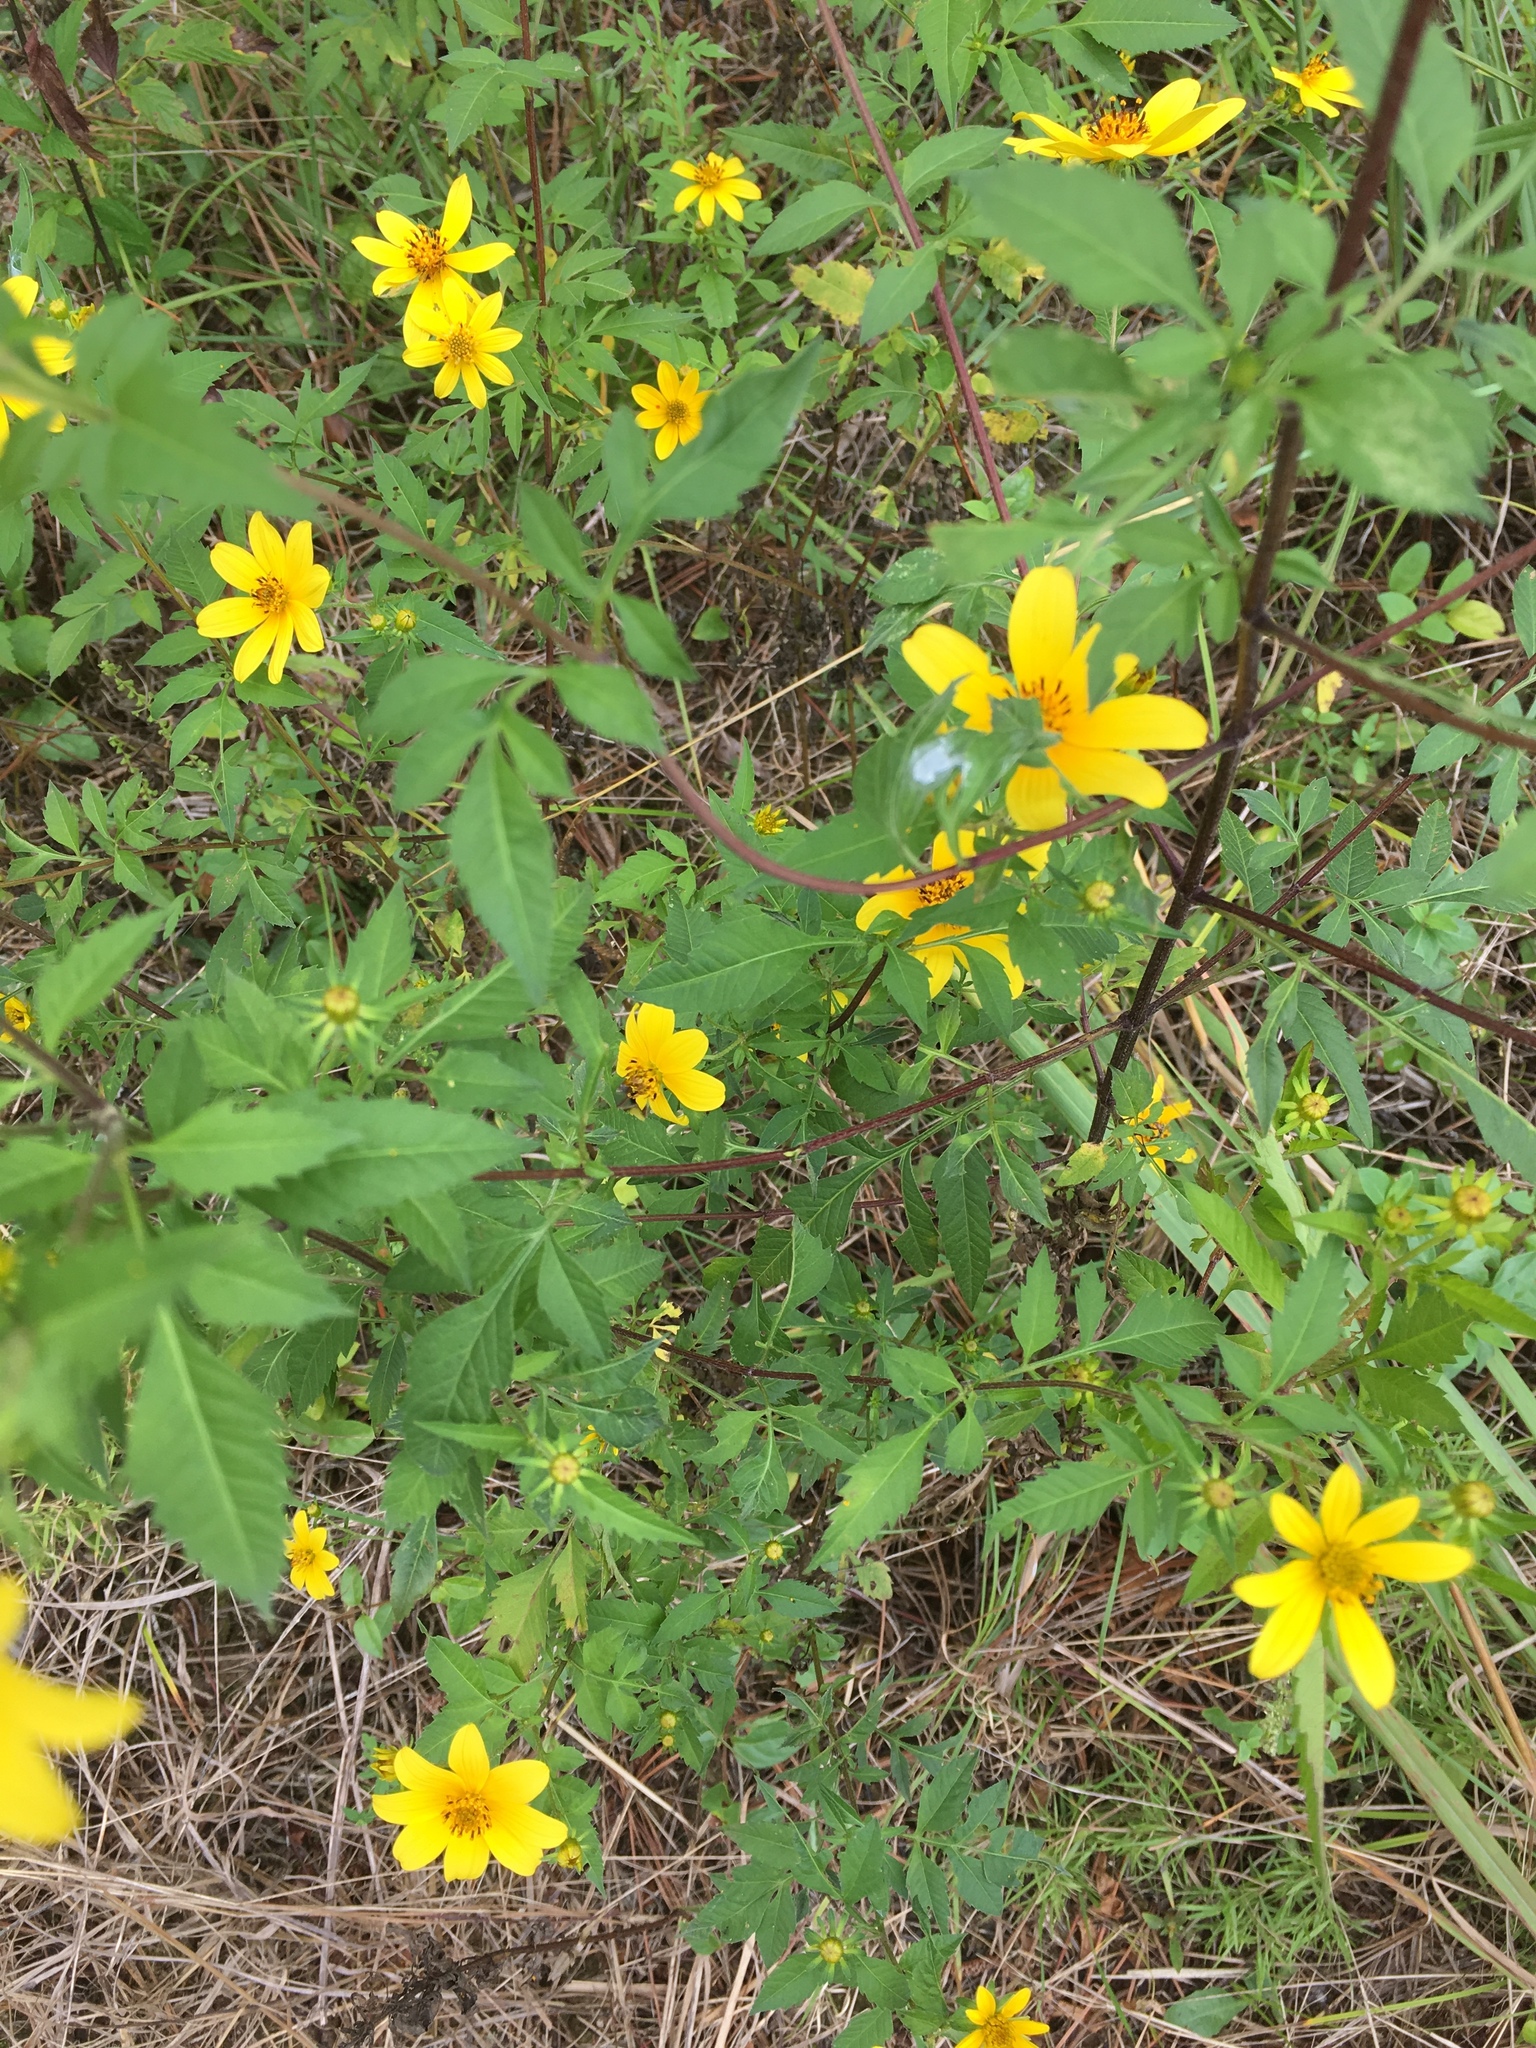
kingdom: Plantae
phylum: Tracheophyta
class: Magnoliopsida
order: Asterales
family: Asteraceae
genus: Bidens
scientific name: Bidens aristosa
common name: Western tickseed
